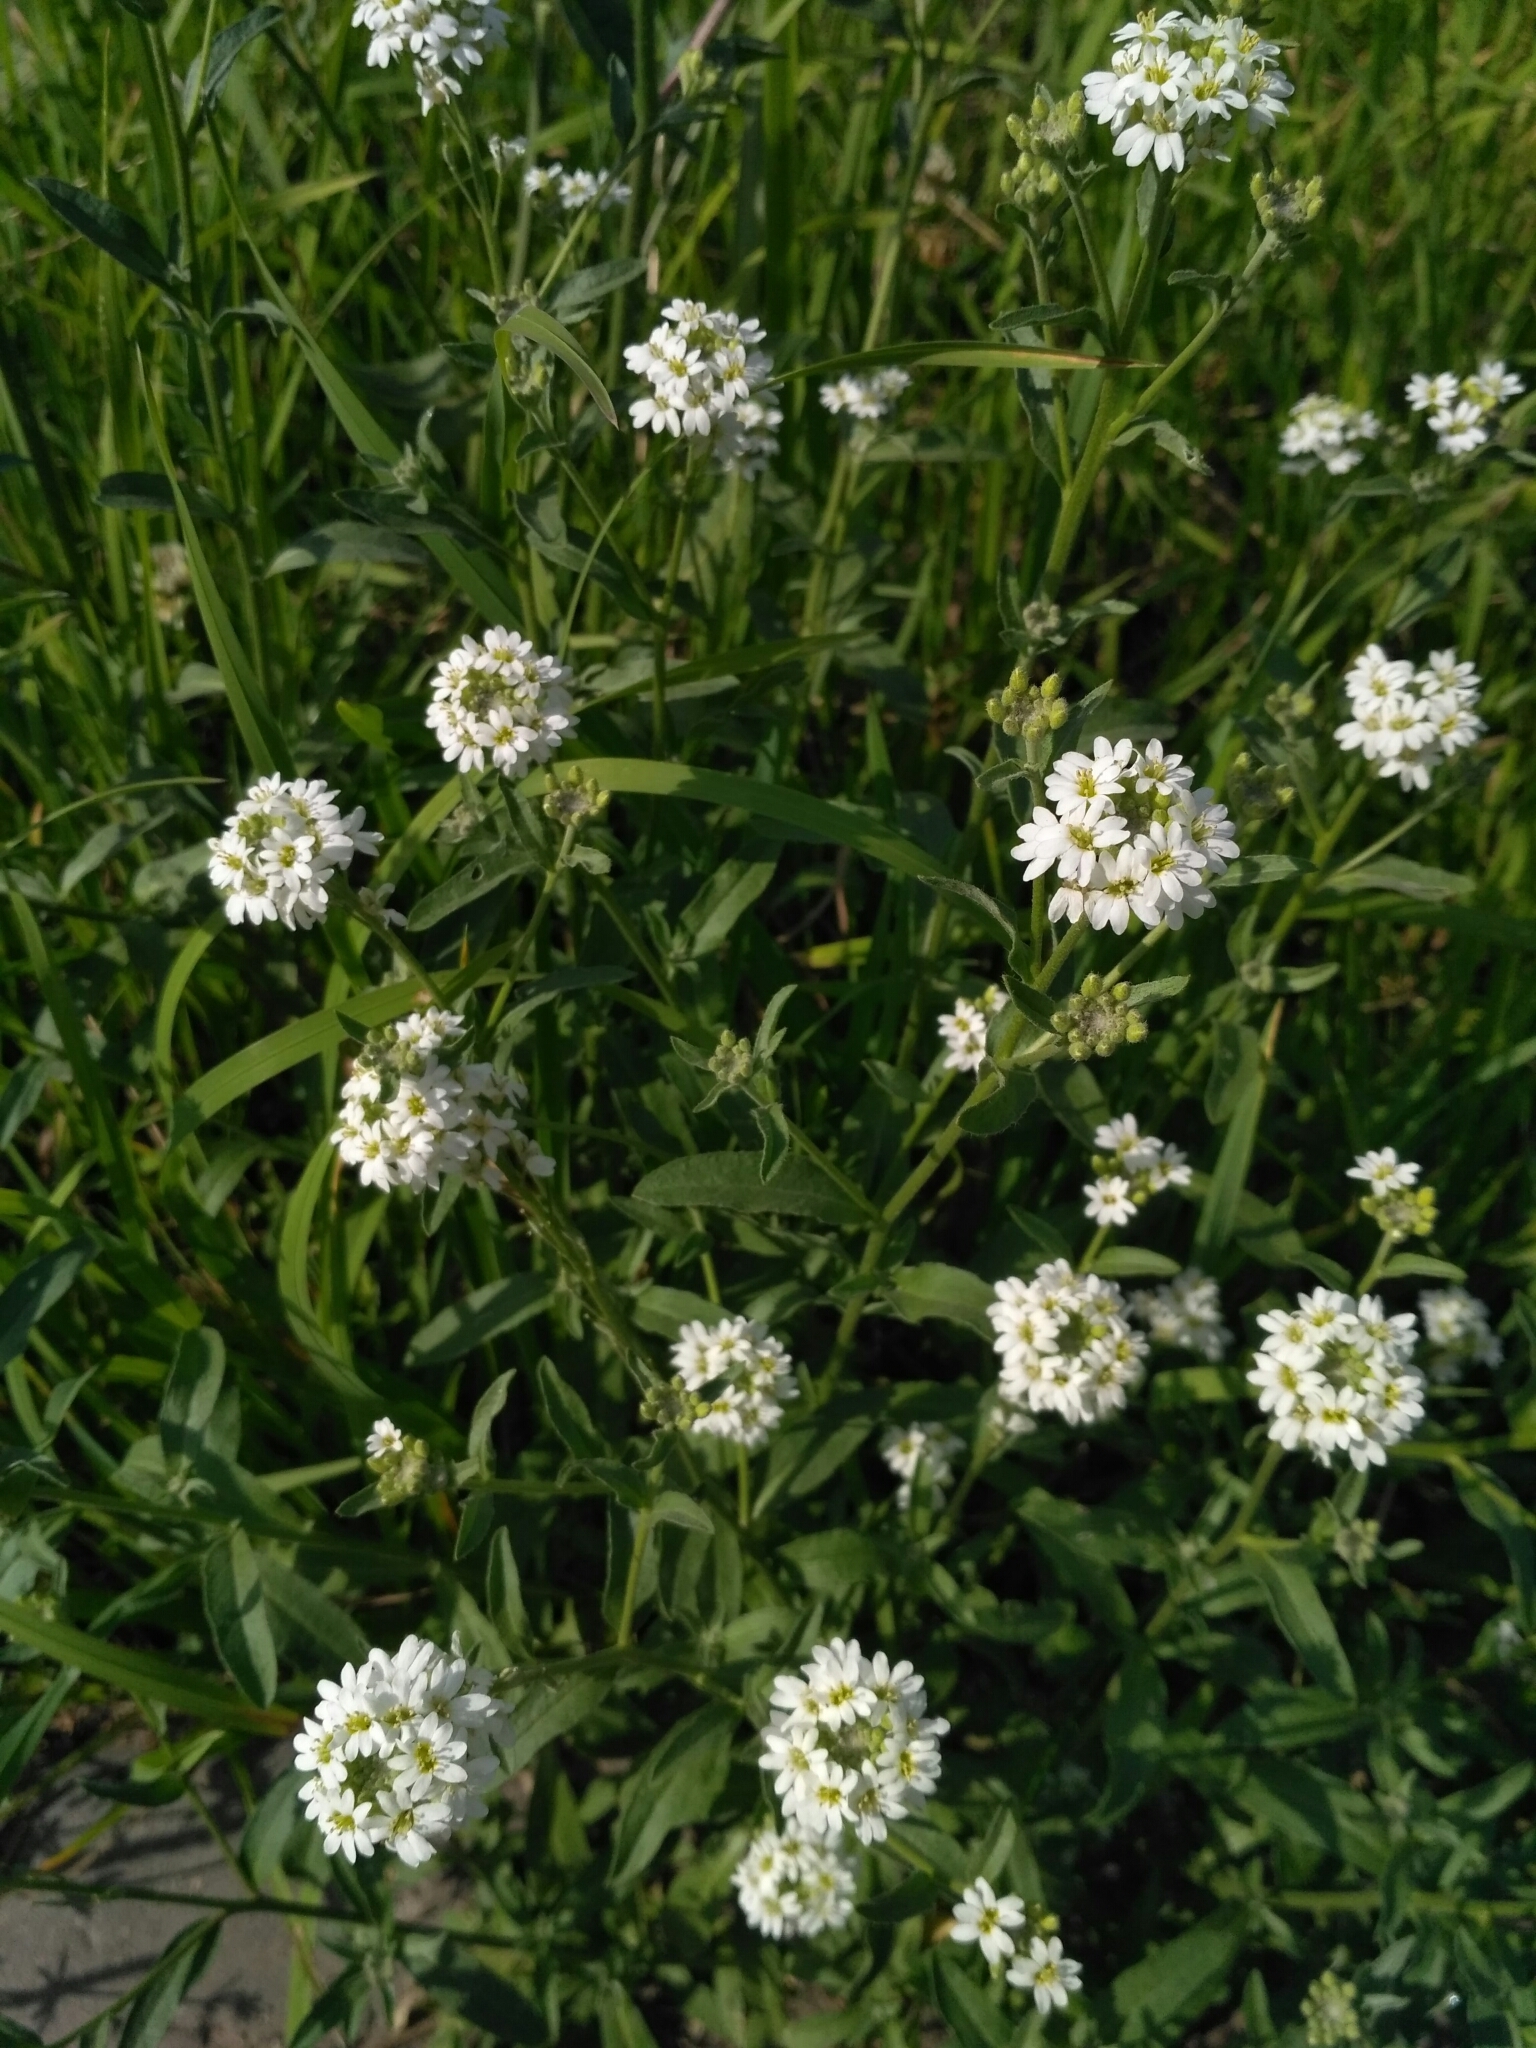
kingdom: Plantae
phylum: Tracheophyta
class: Magnoliopsida
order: Brassicales
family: Brassicaceae
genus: Berteroa
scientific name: Berteroa incana
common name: Hoary alison
